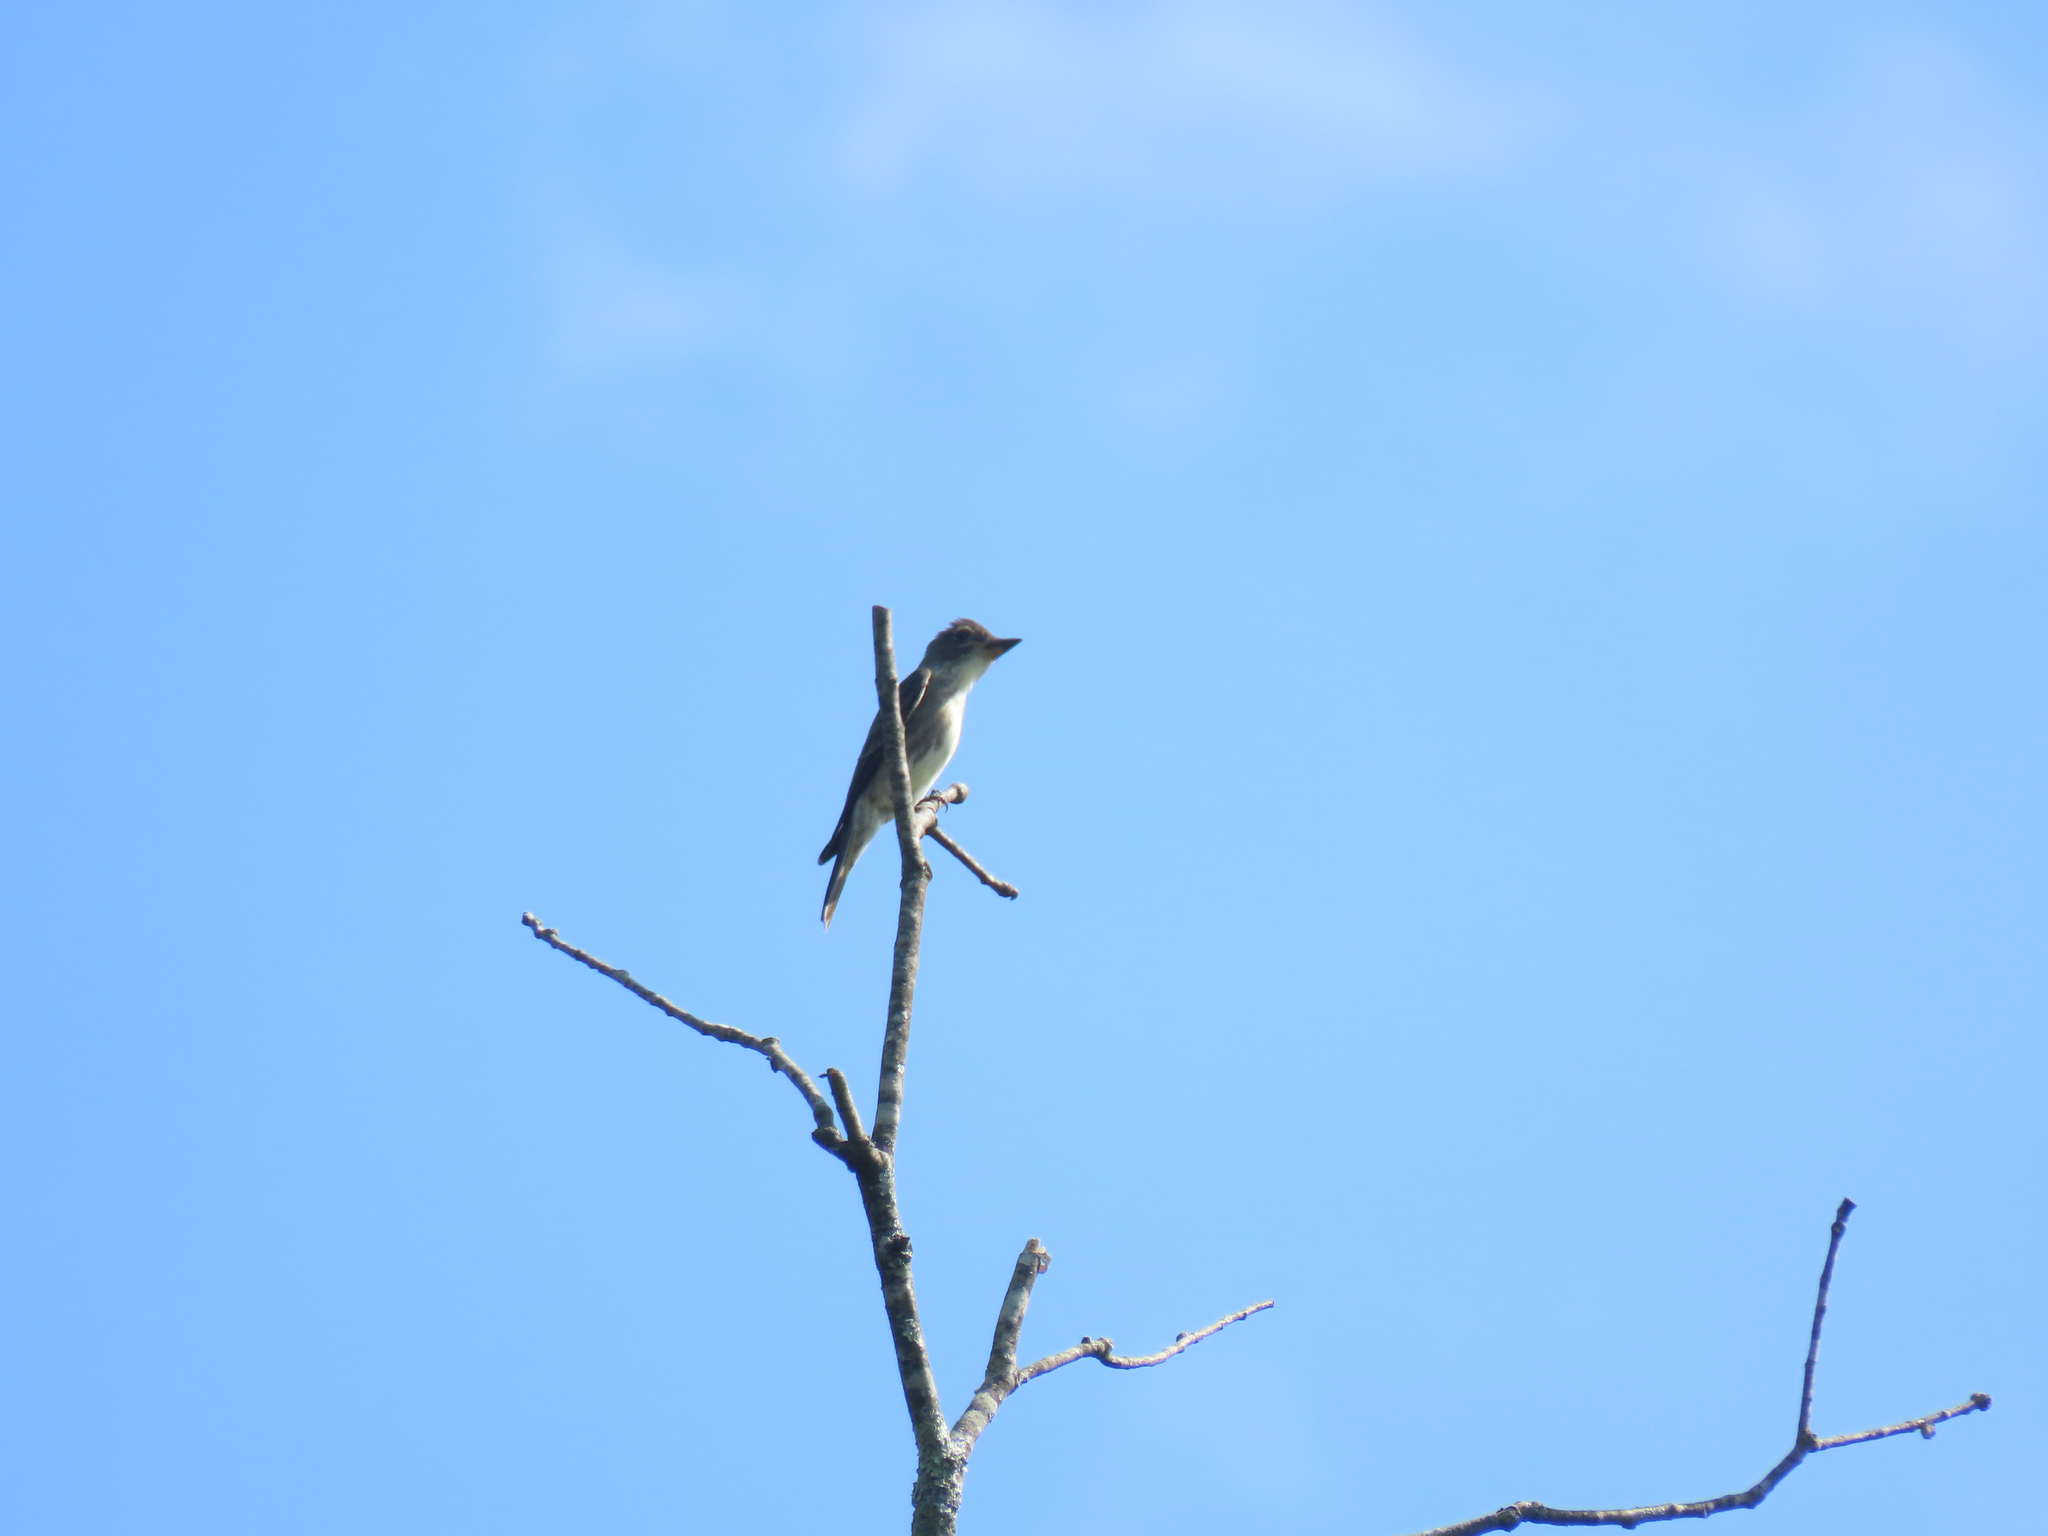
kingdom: Animalia
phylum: Chordata
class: Aves
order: Passeriformes
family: Tyrannidae
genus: Contopus
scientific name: Contopus cooperi
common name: Olive-sided flycatcher
